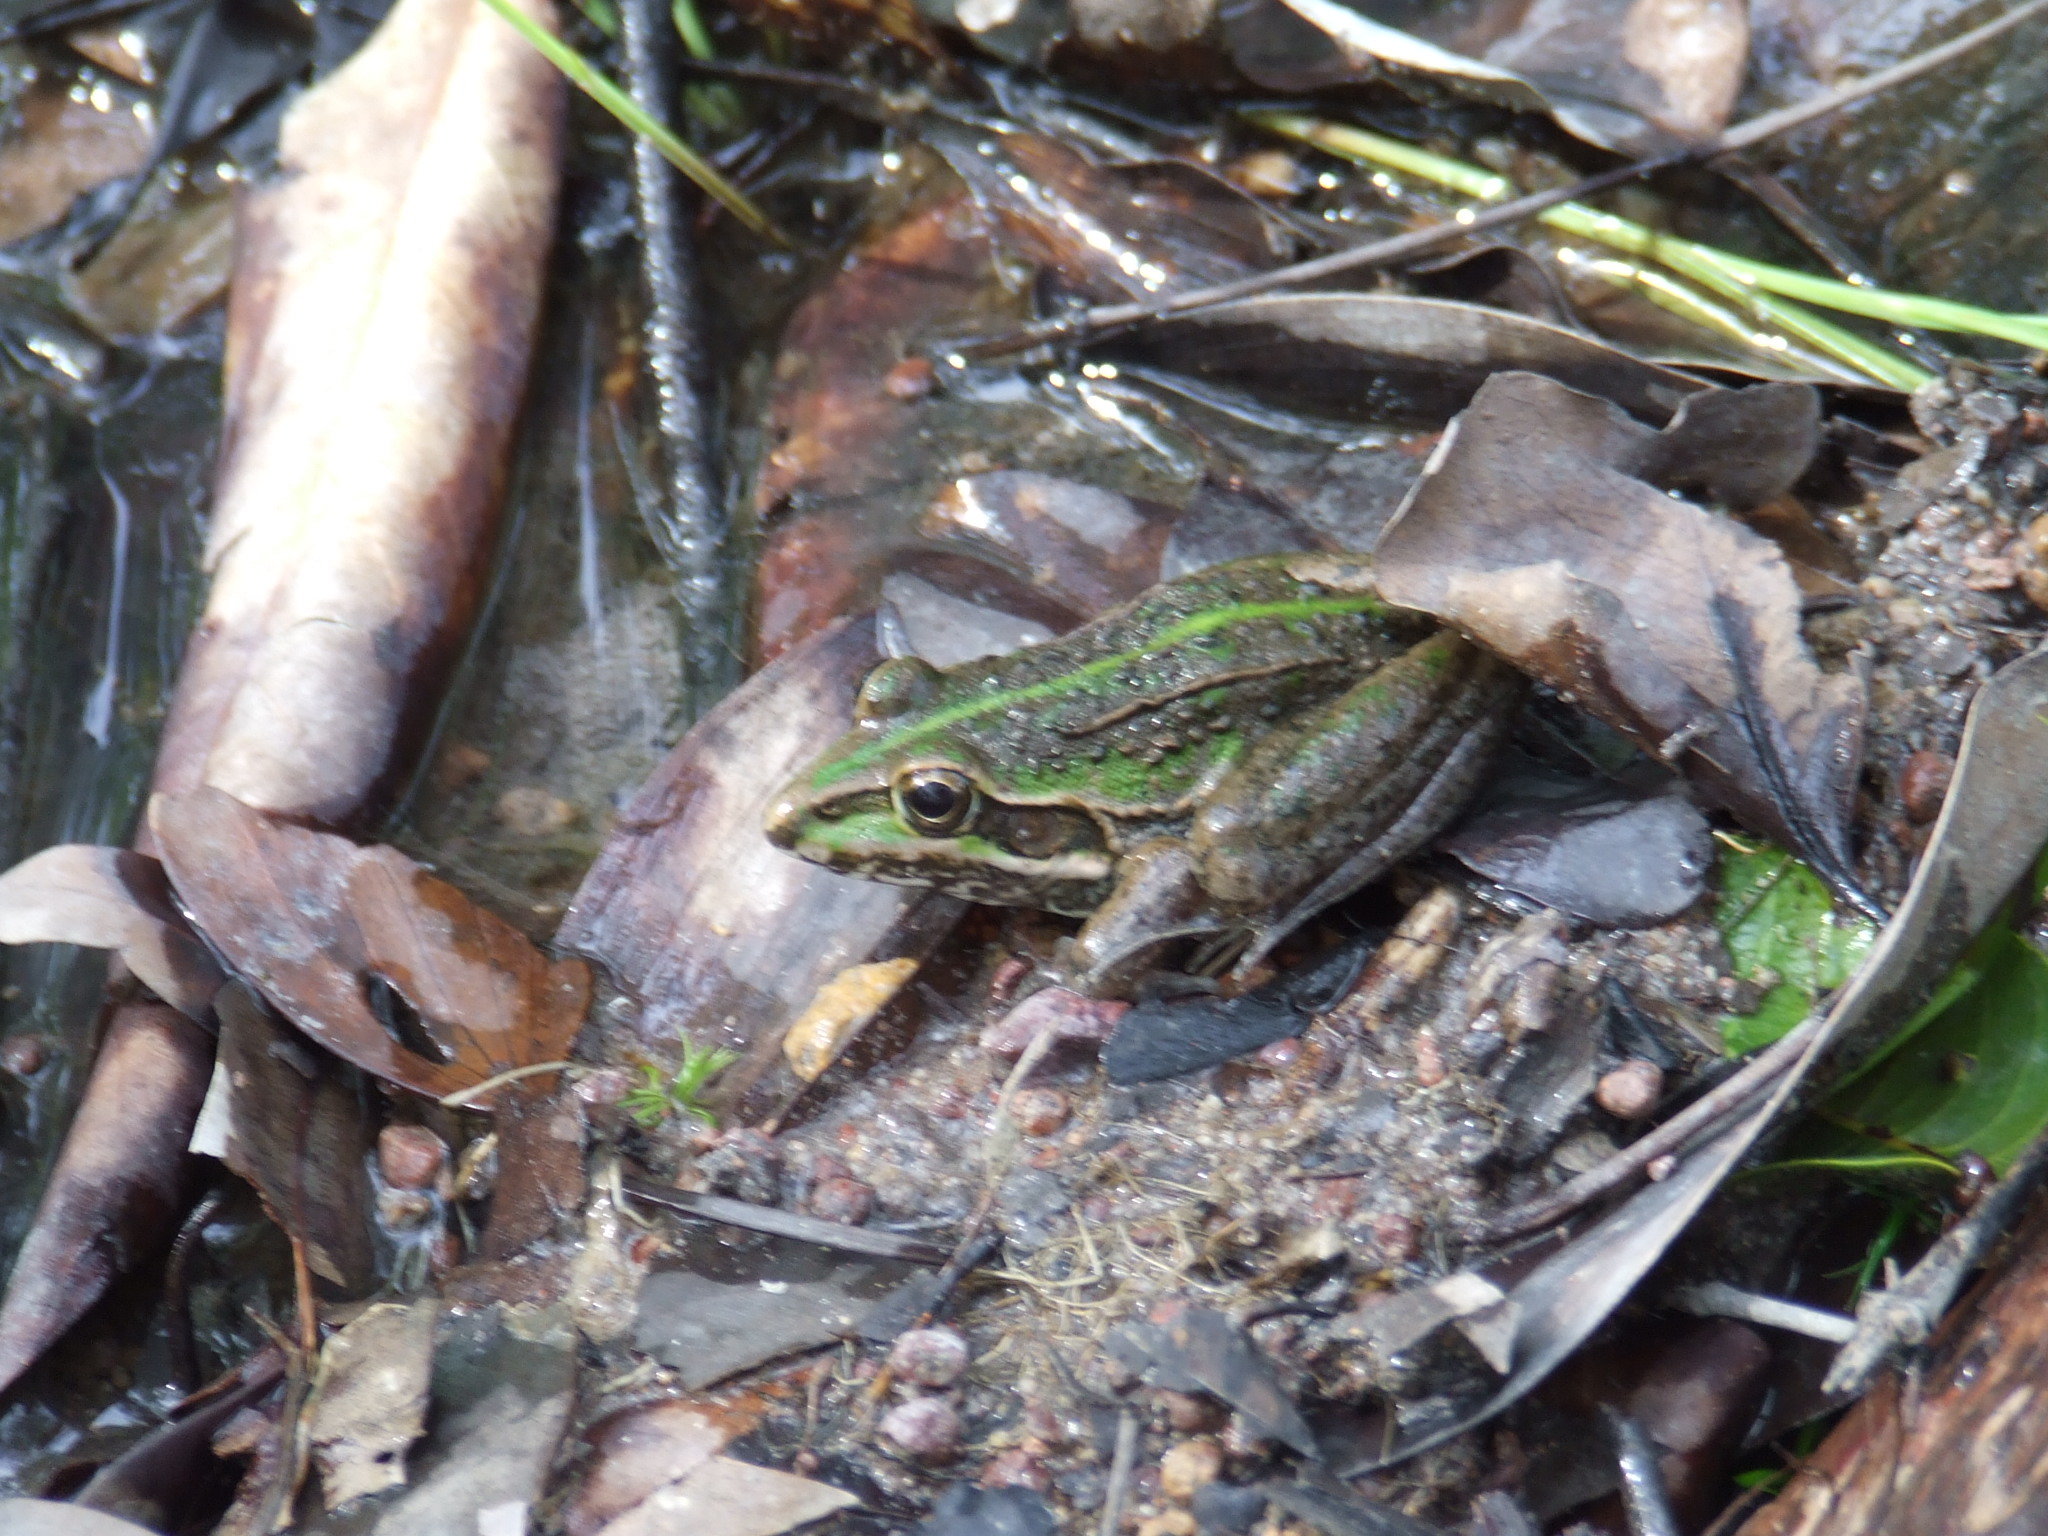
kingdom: Animalia
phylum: Chordata
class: Amphibia
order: Anura
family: Pelodryadidae
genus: Ranoidea
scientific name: Ranoidea alboguttata
